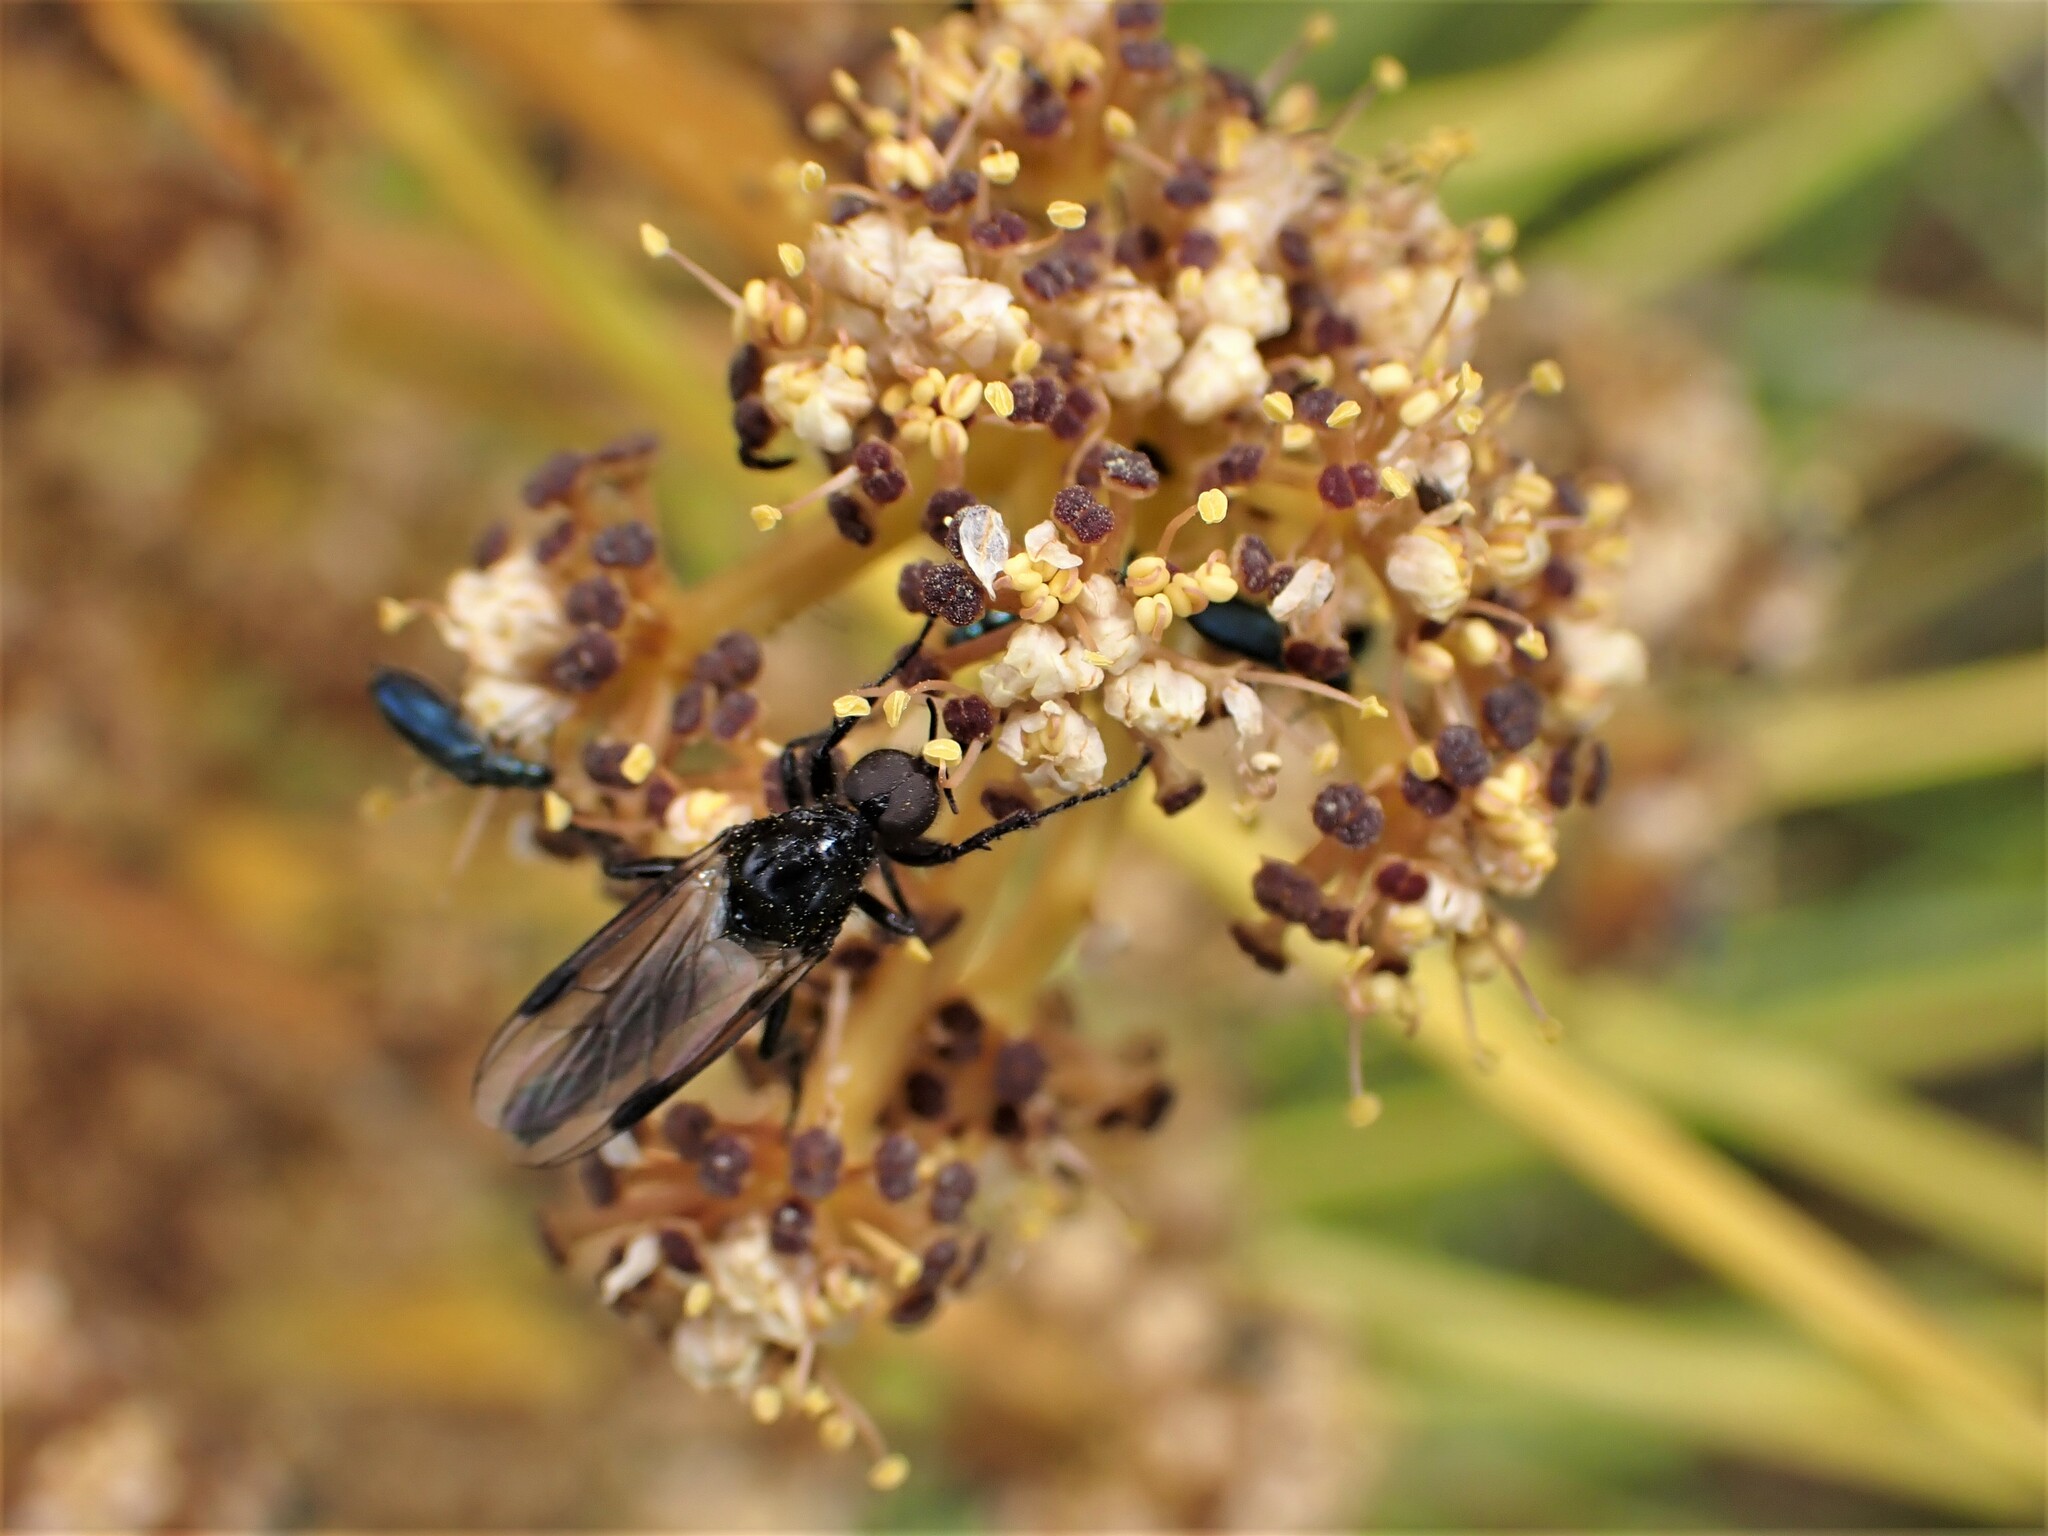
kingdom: Animalia
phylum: Arthropoda
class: Insecta
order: Diptera
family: Bibionidae
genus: Dilophus
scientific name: Dilophus nigrostigma
